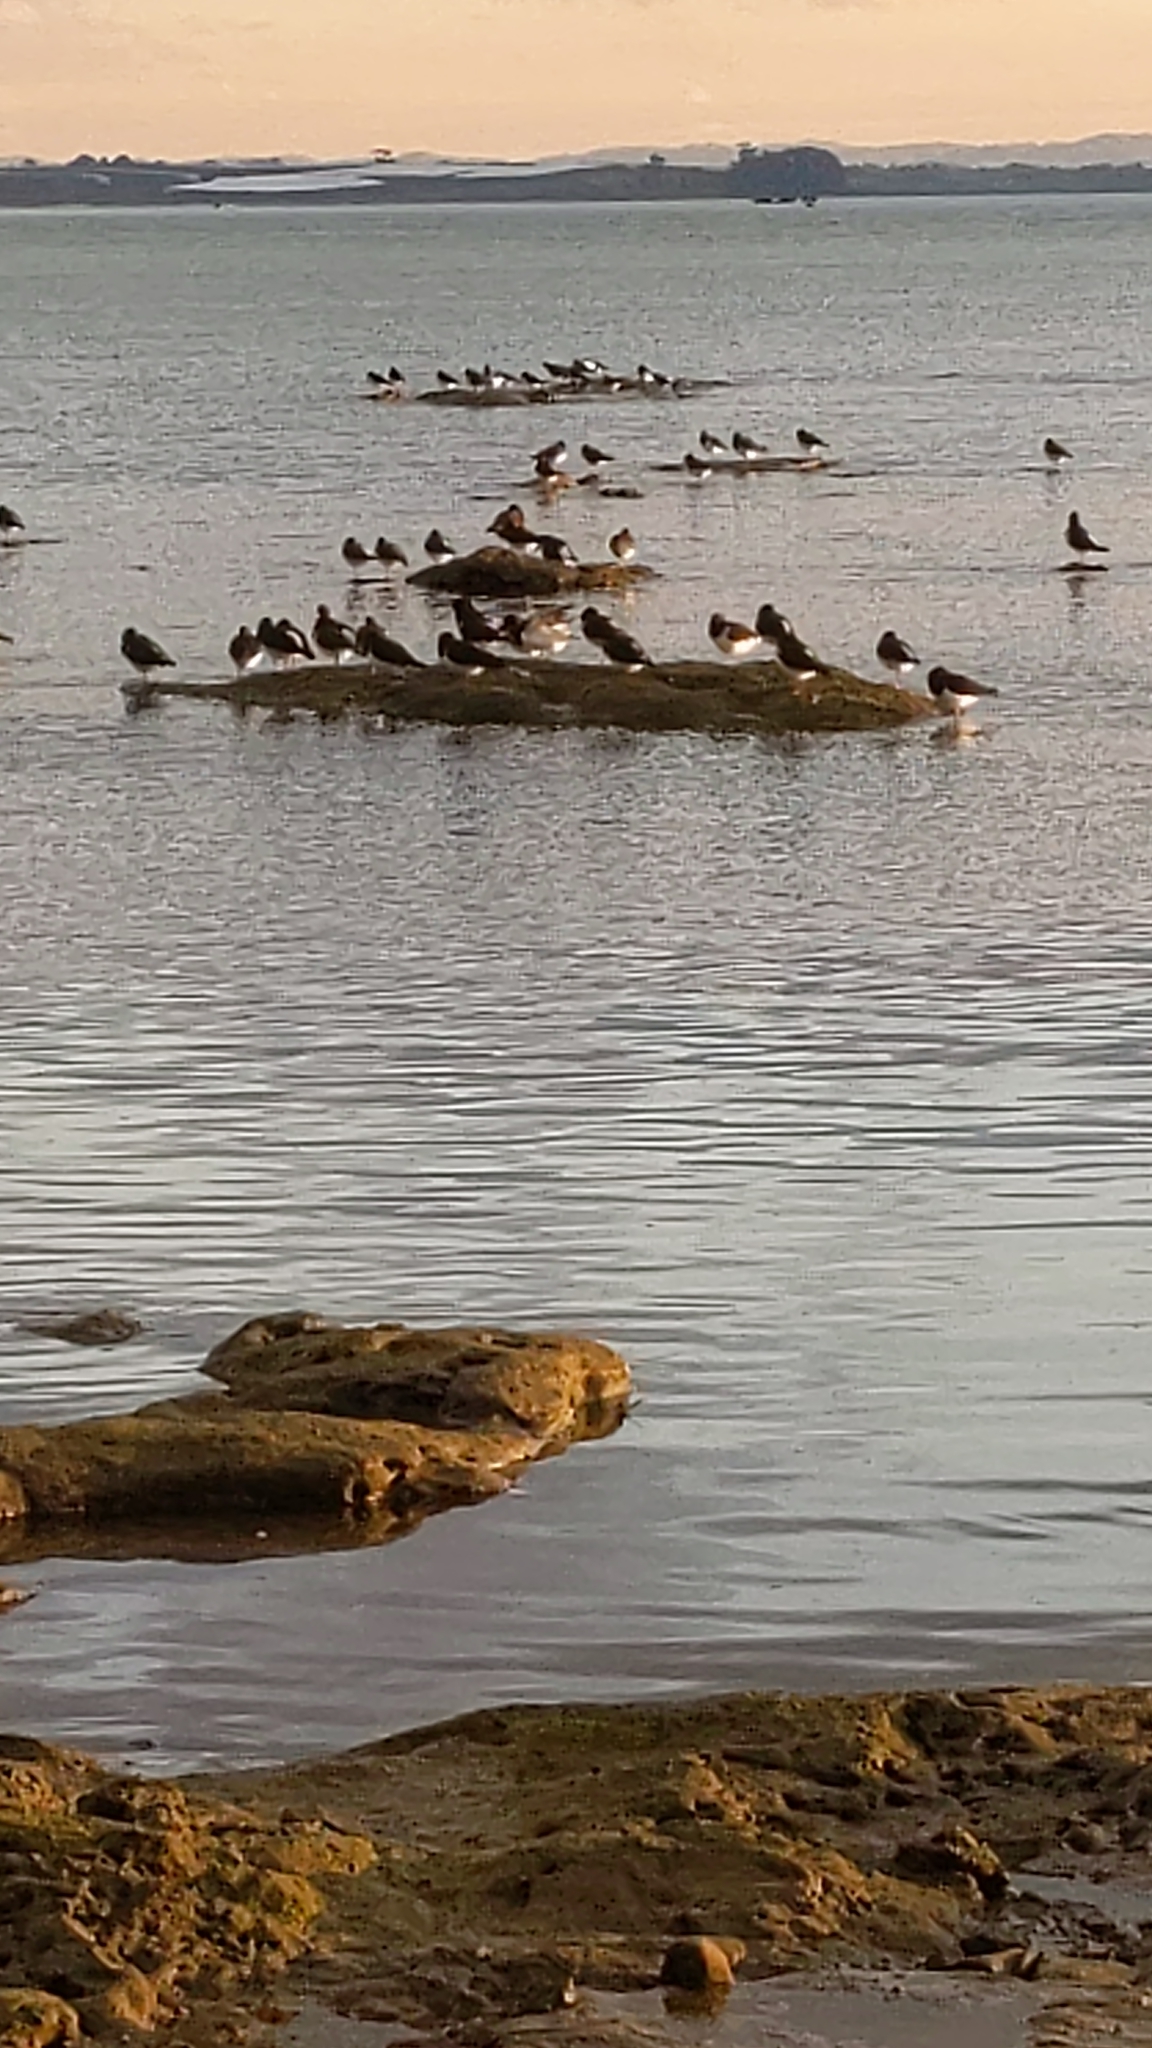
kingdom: Animalia
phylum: Chordata
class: Aves
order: Charadriiformes
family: Haematopodidae
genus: Haematopus
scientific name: Haematopus finschi
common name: South island oystercatcher
